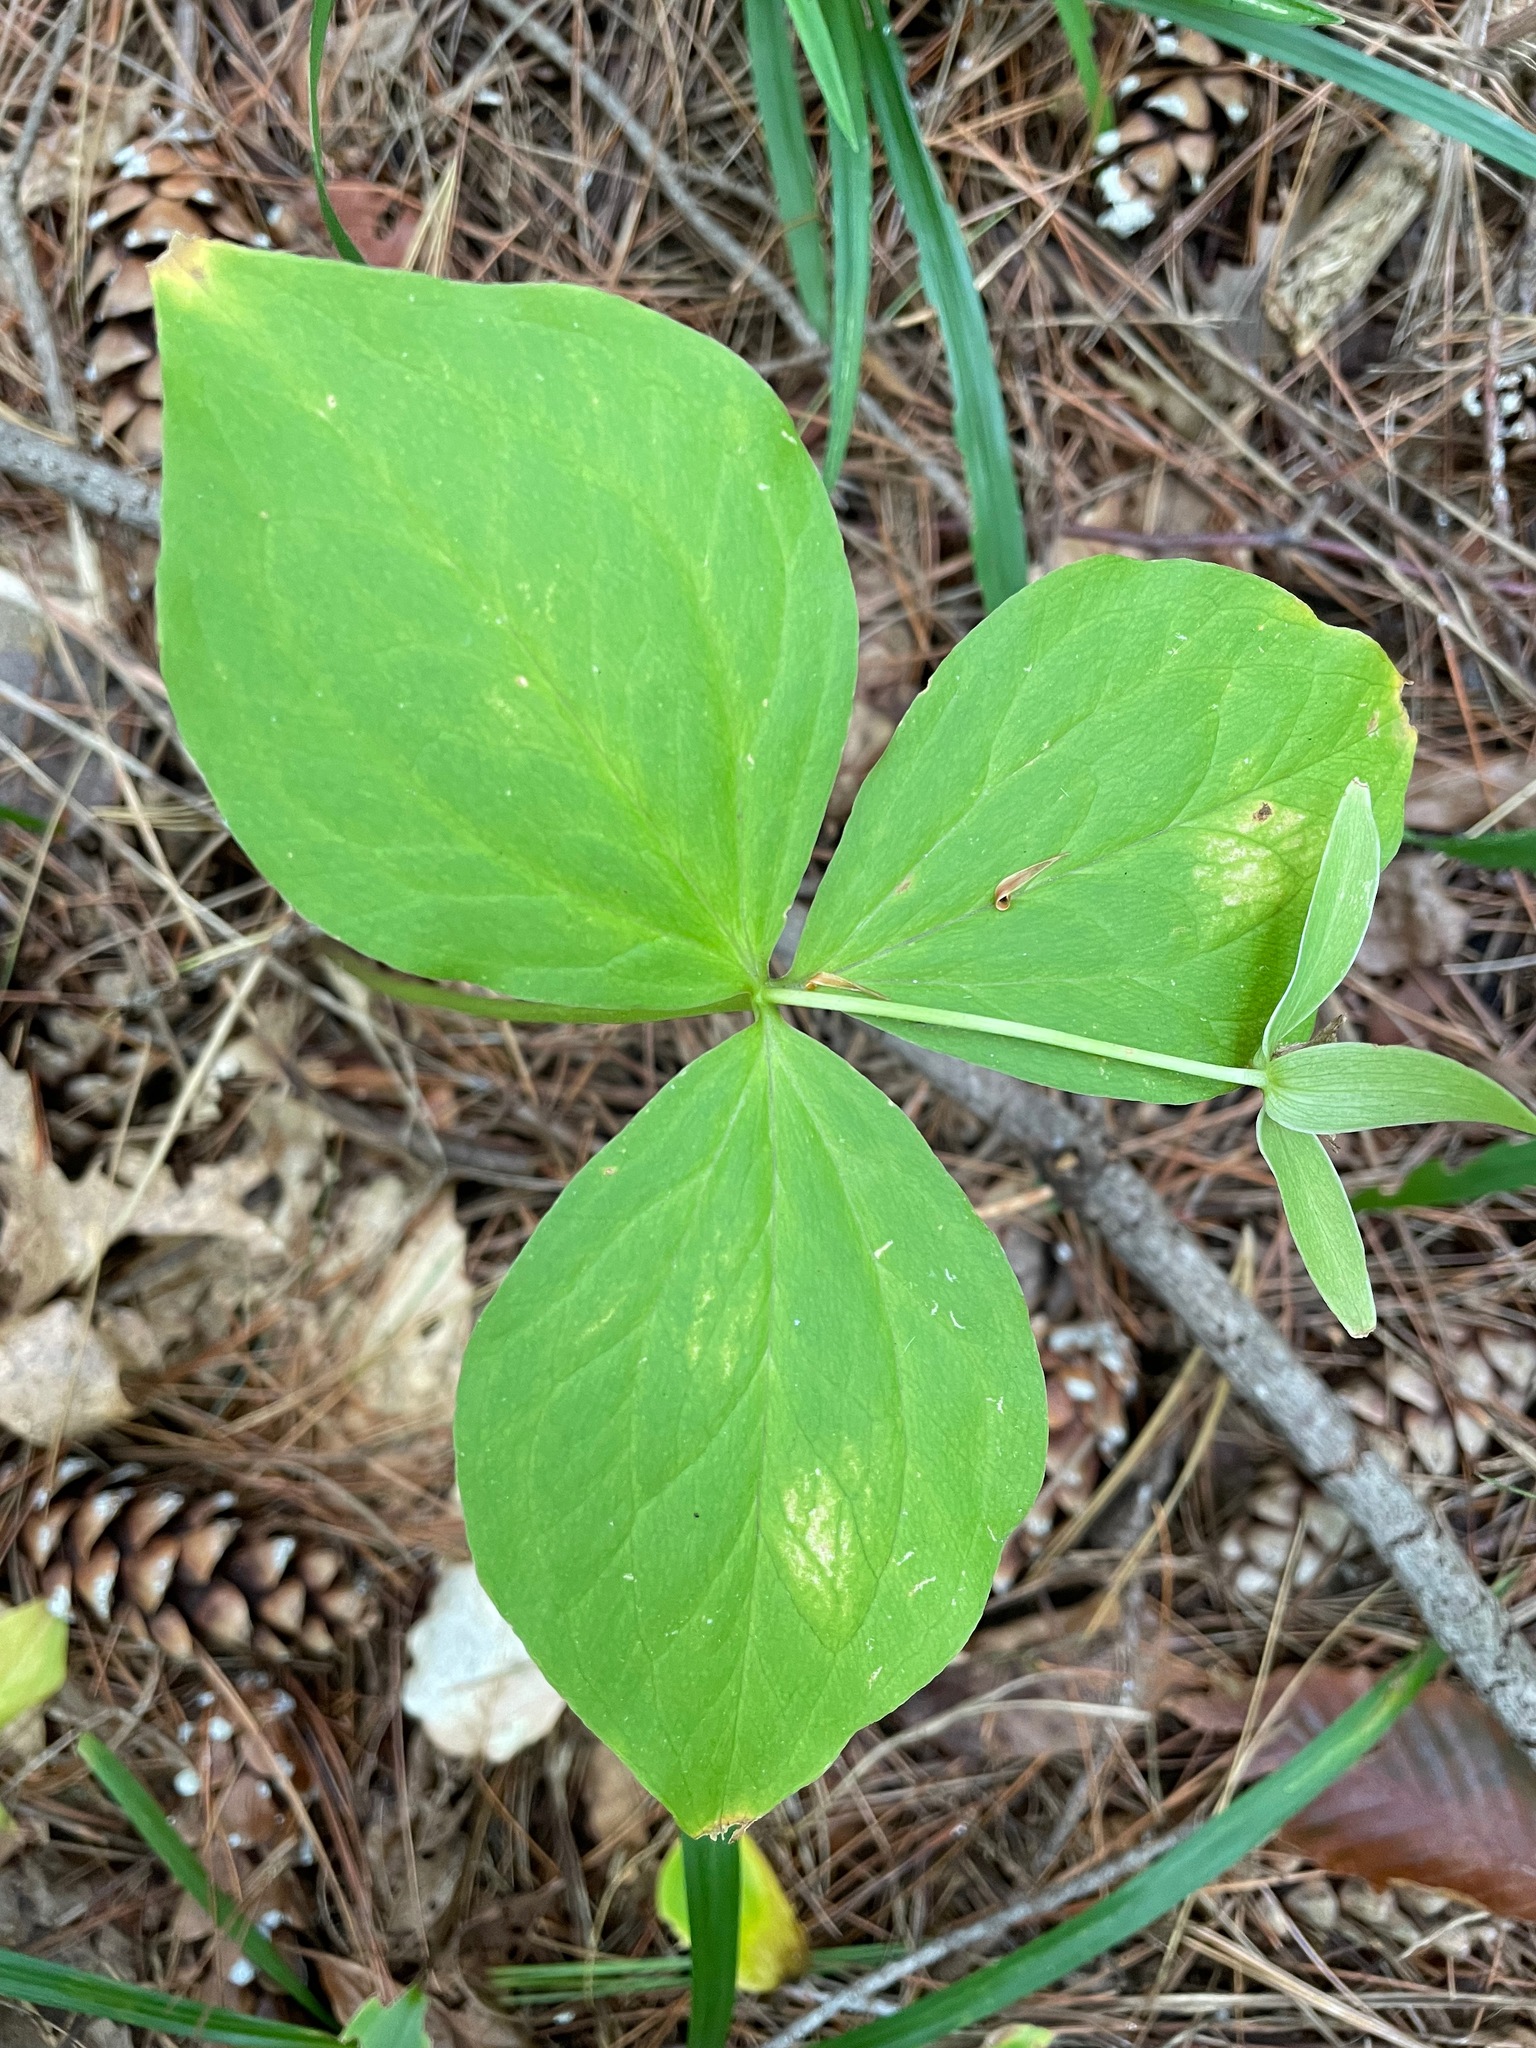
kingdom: Plantae
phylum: Tracheophyta
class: Liliopsida
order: Liliales
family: Melanthiaceae
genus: Trillium
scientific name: Trillium grandiflorum
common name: Great white trillium
